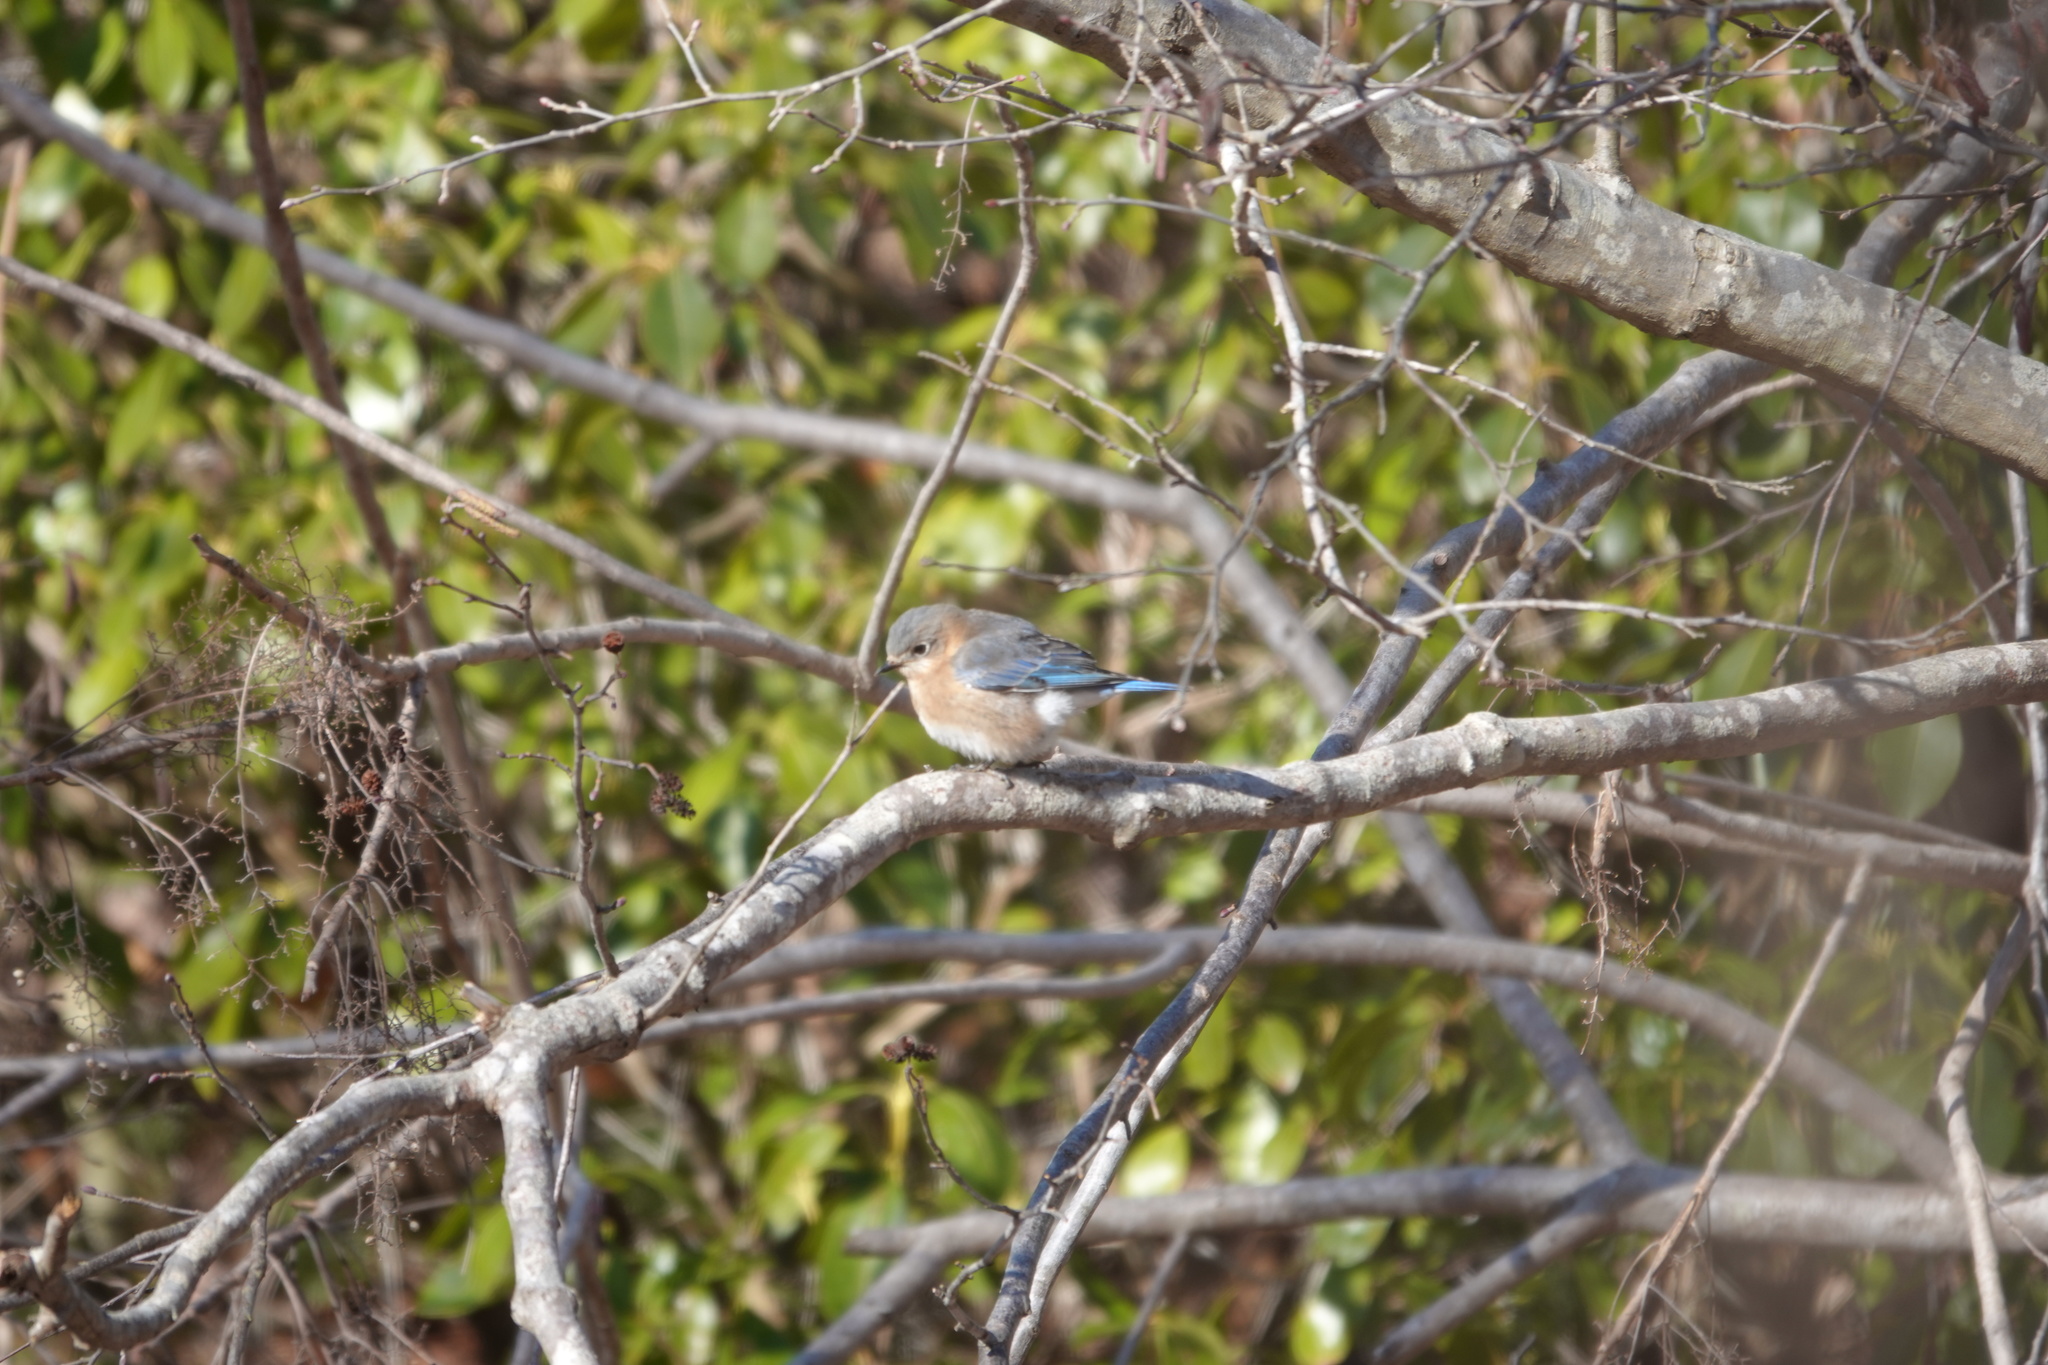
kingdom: Animalia
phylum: Chordata
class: Aves
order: Passeriformes
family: Turdidae
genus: Sialia
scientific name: Sialia sialis
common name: Eastern bluebird
